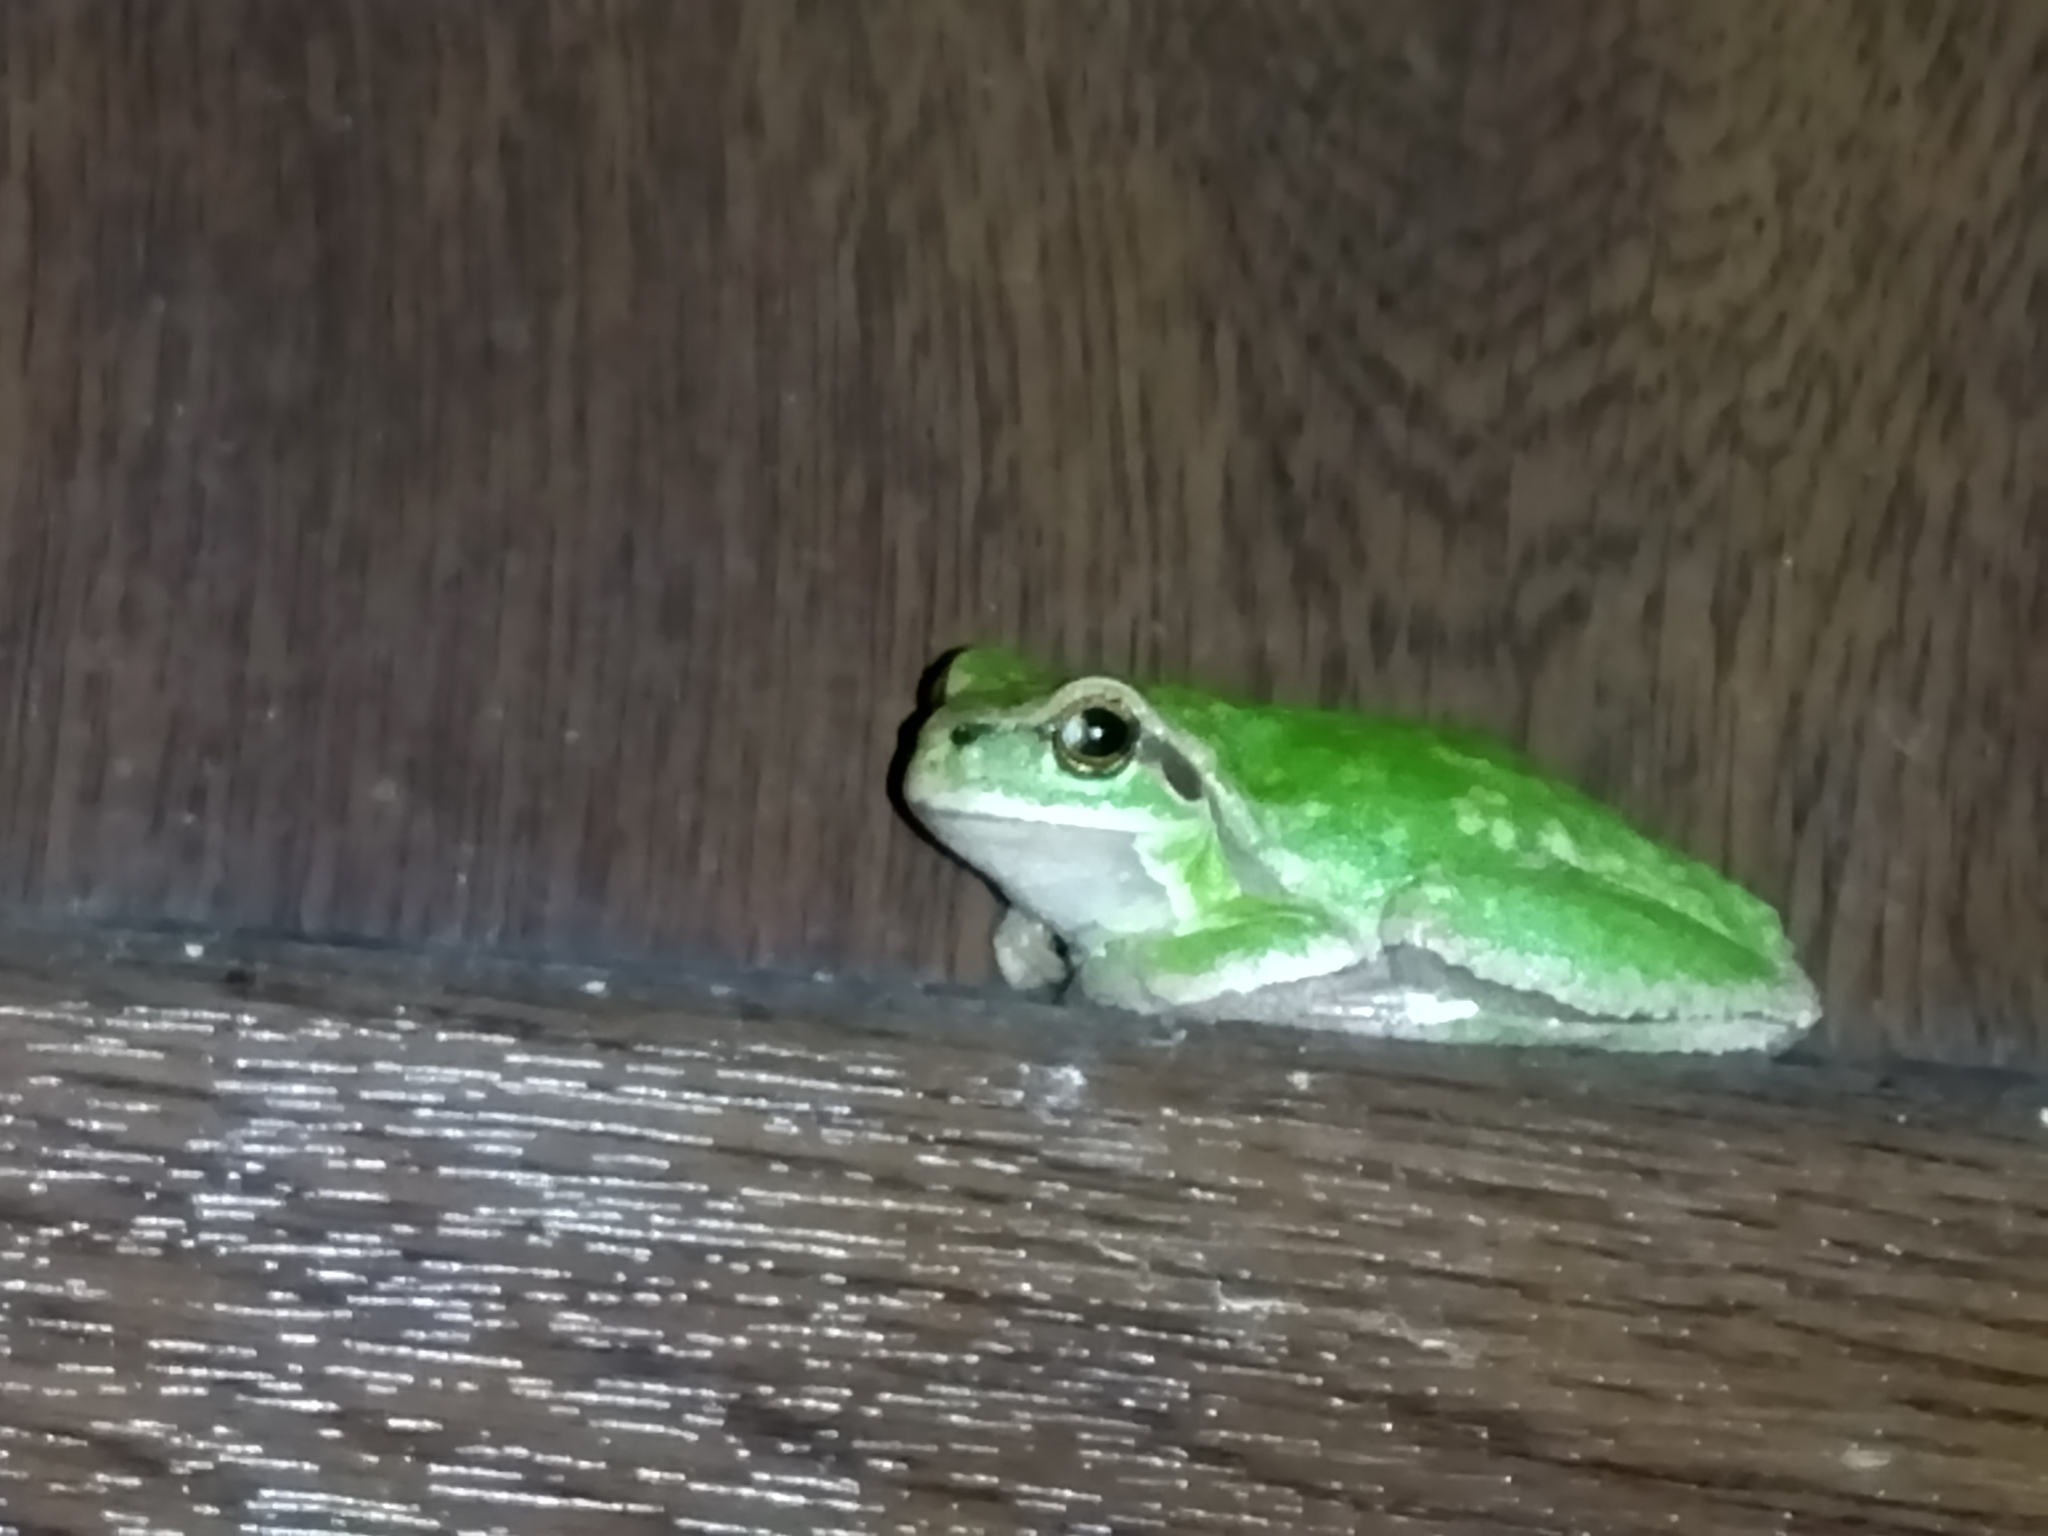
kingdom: Animalia
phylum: Chordata
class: Amphibia
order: Anura
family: Hylidae
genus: Hyla
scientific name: Hyla orientalis
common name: Caucasian treefrog
